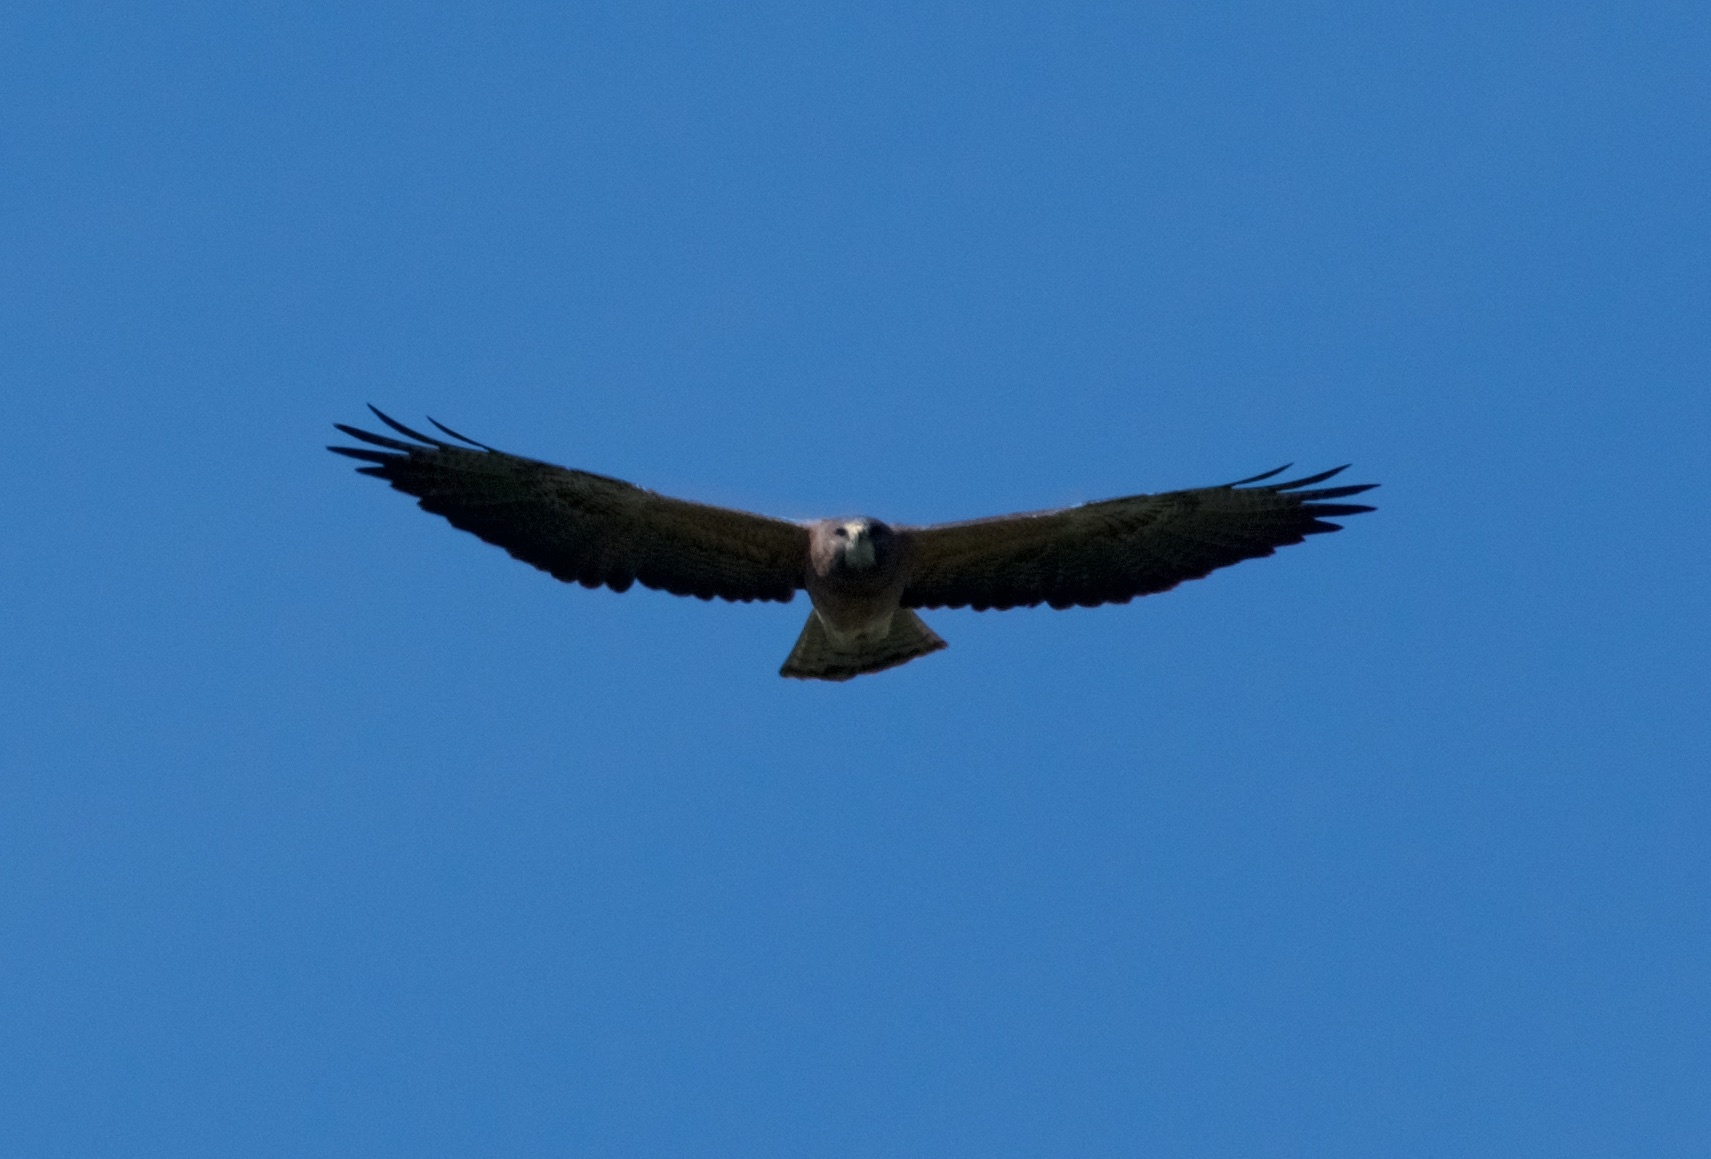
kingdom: Animalia
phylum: Chordata
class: Aves
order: Accipitriformes
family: Accipitridae
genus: Buteo
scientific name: Buteo swainsoni
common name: Swainson's hawk
